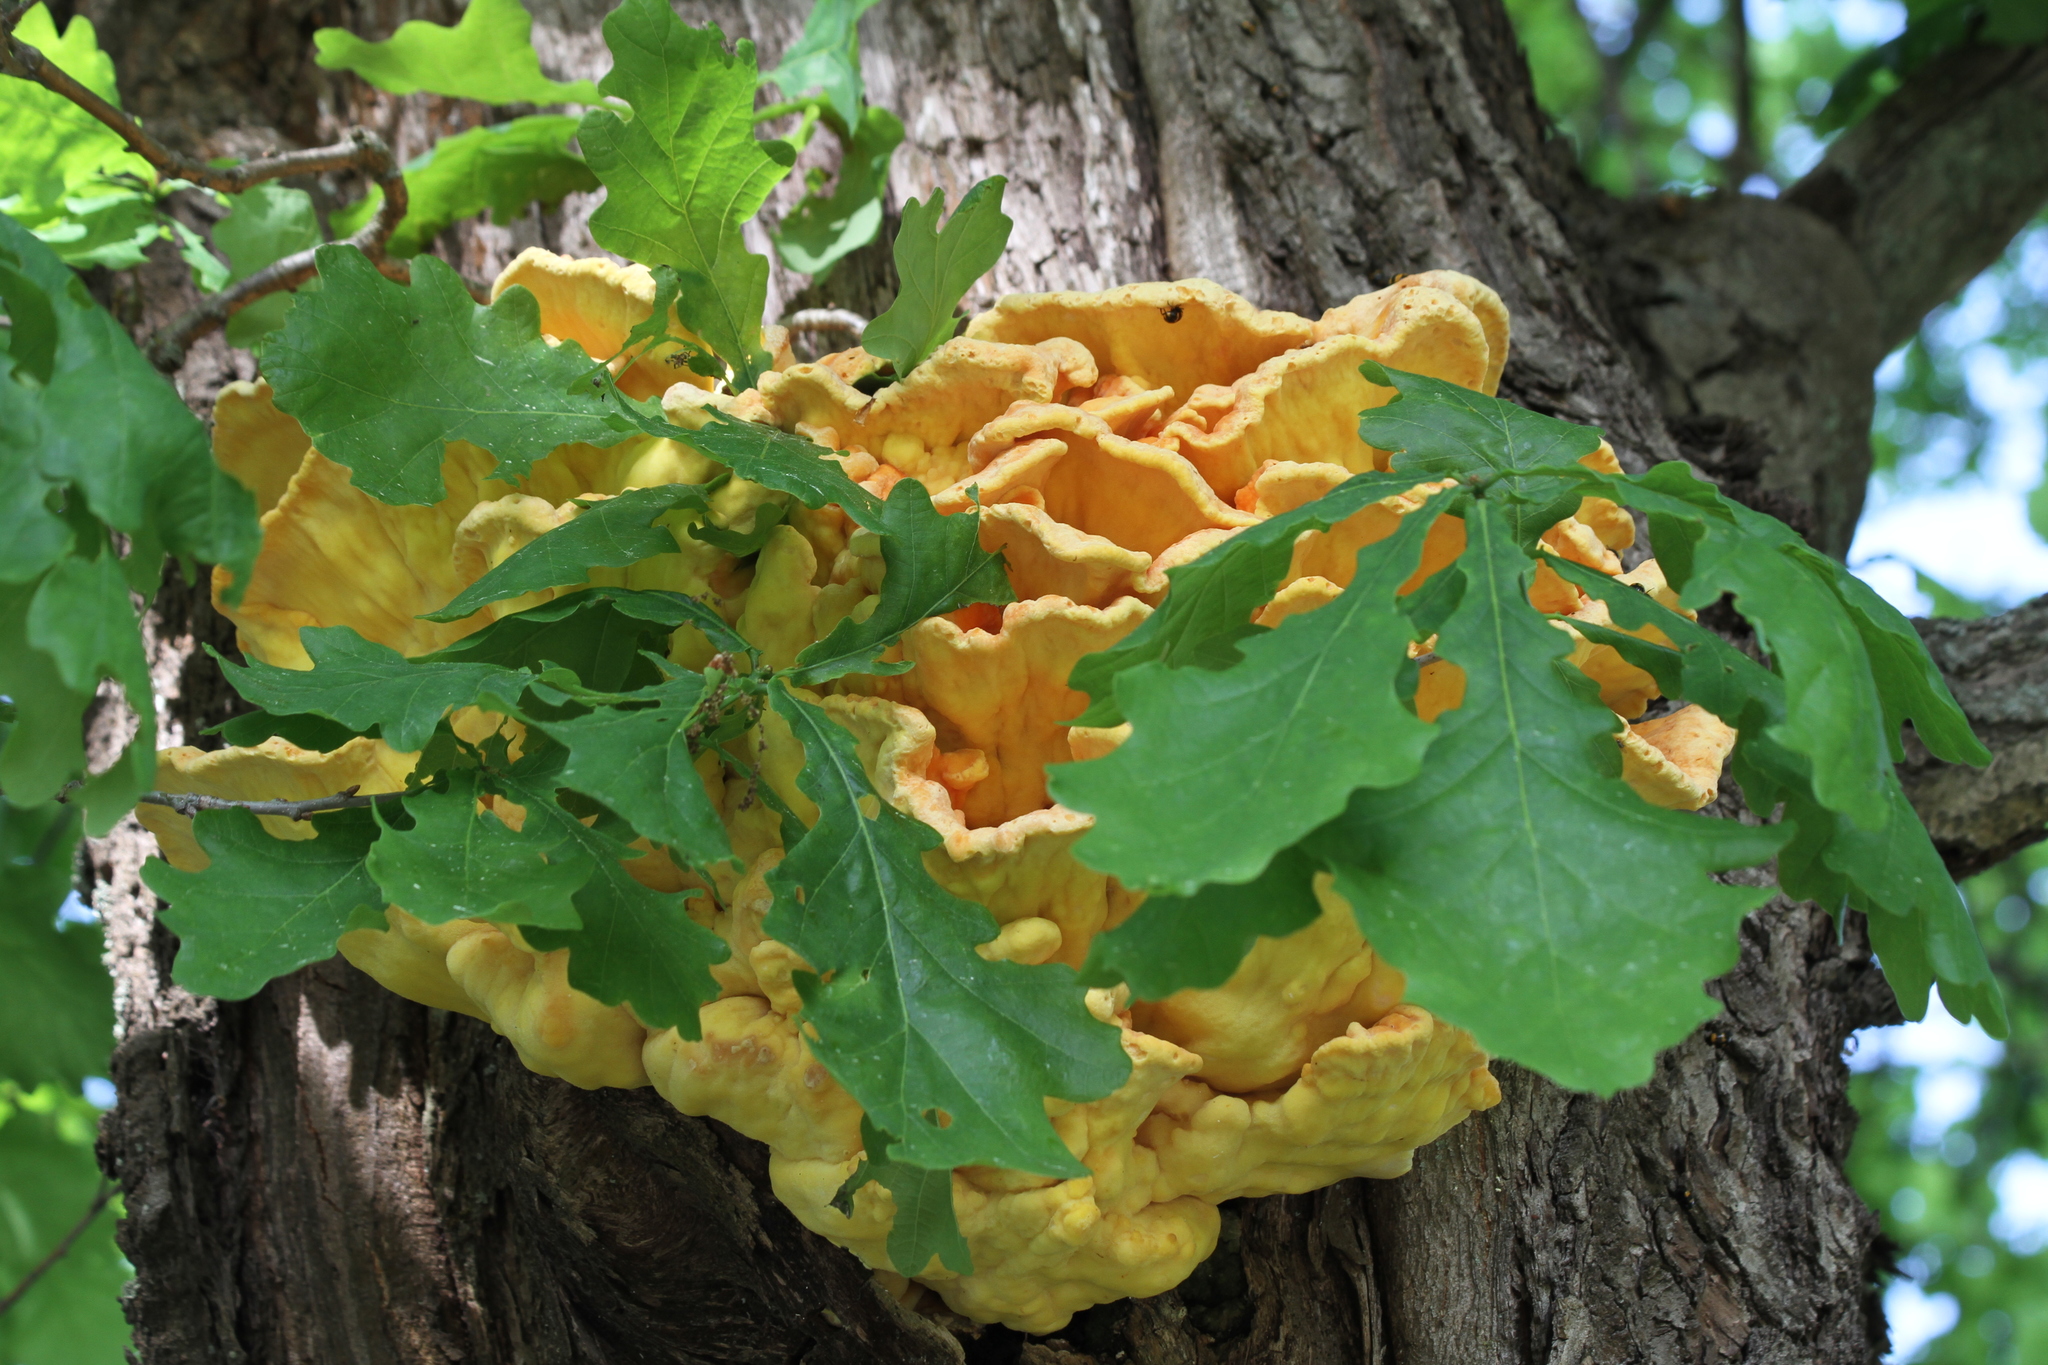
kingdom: Fungi
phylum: Basidiomycota
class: Agaricomycetes
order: Polyporales
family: Laetiporaceae
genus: Laetiporus
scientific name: Laetiporus sulphureus
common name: Chicken of the woods
